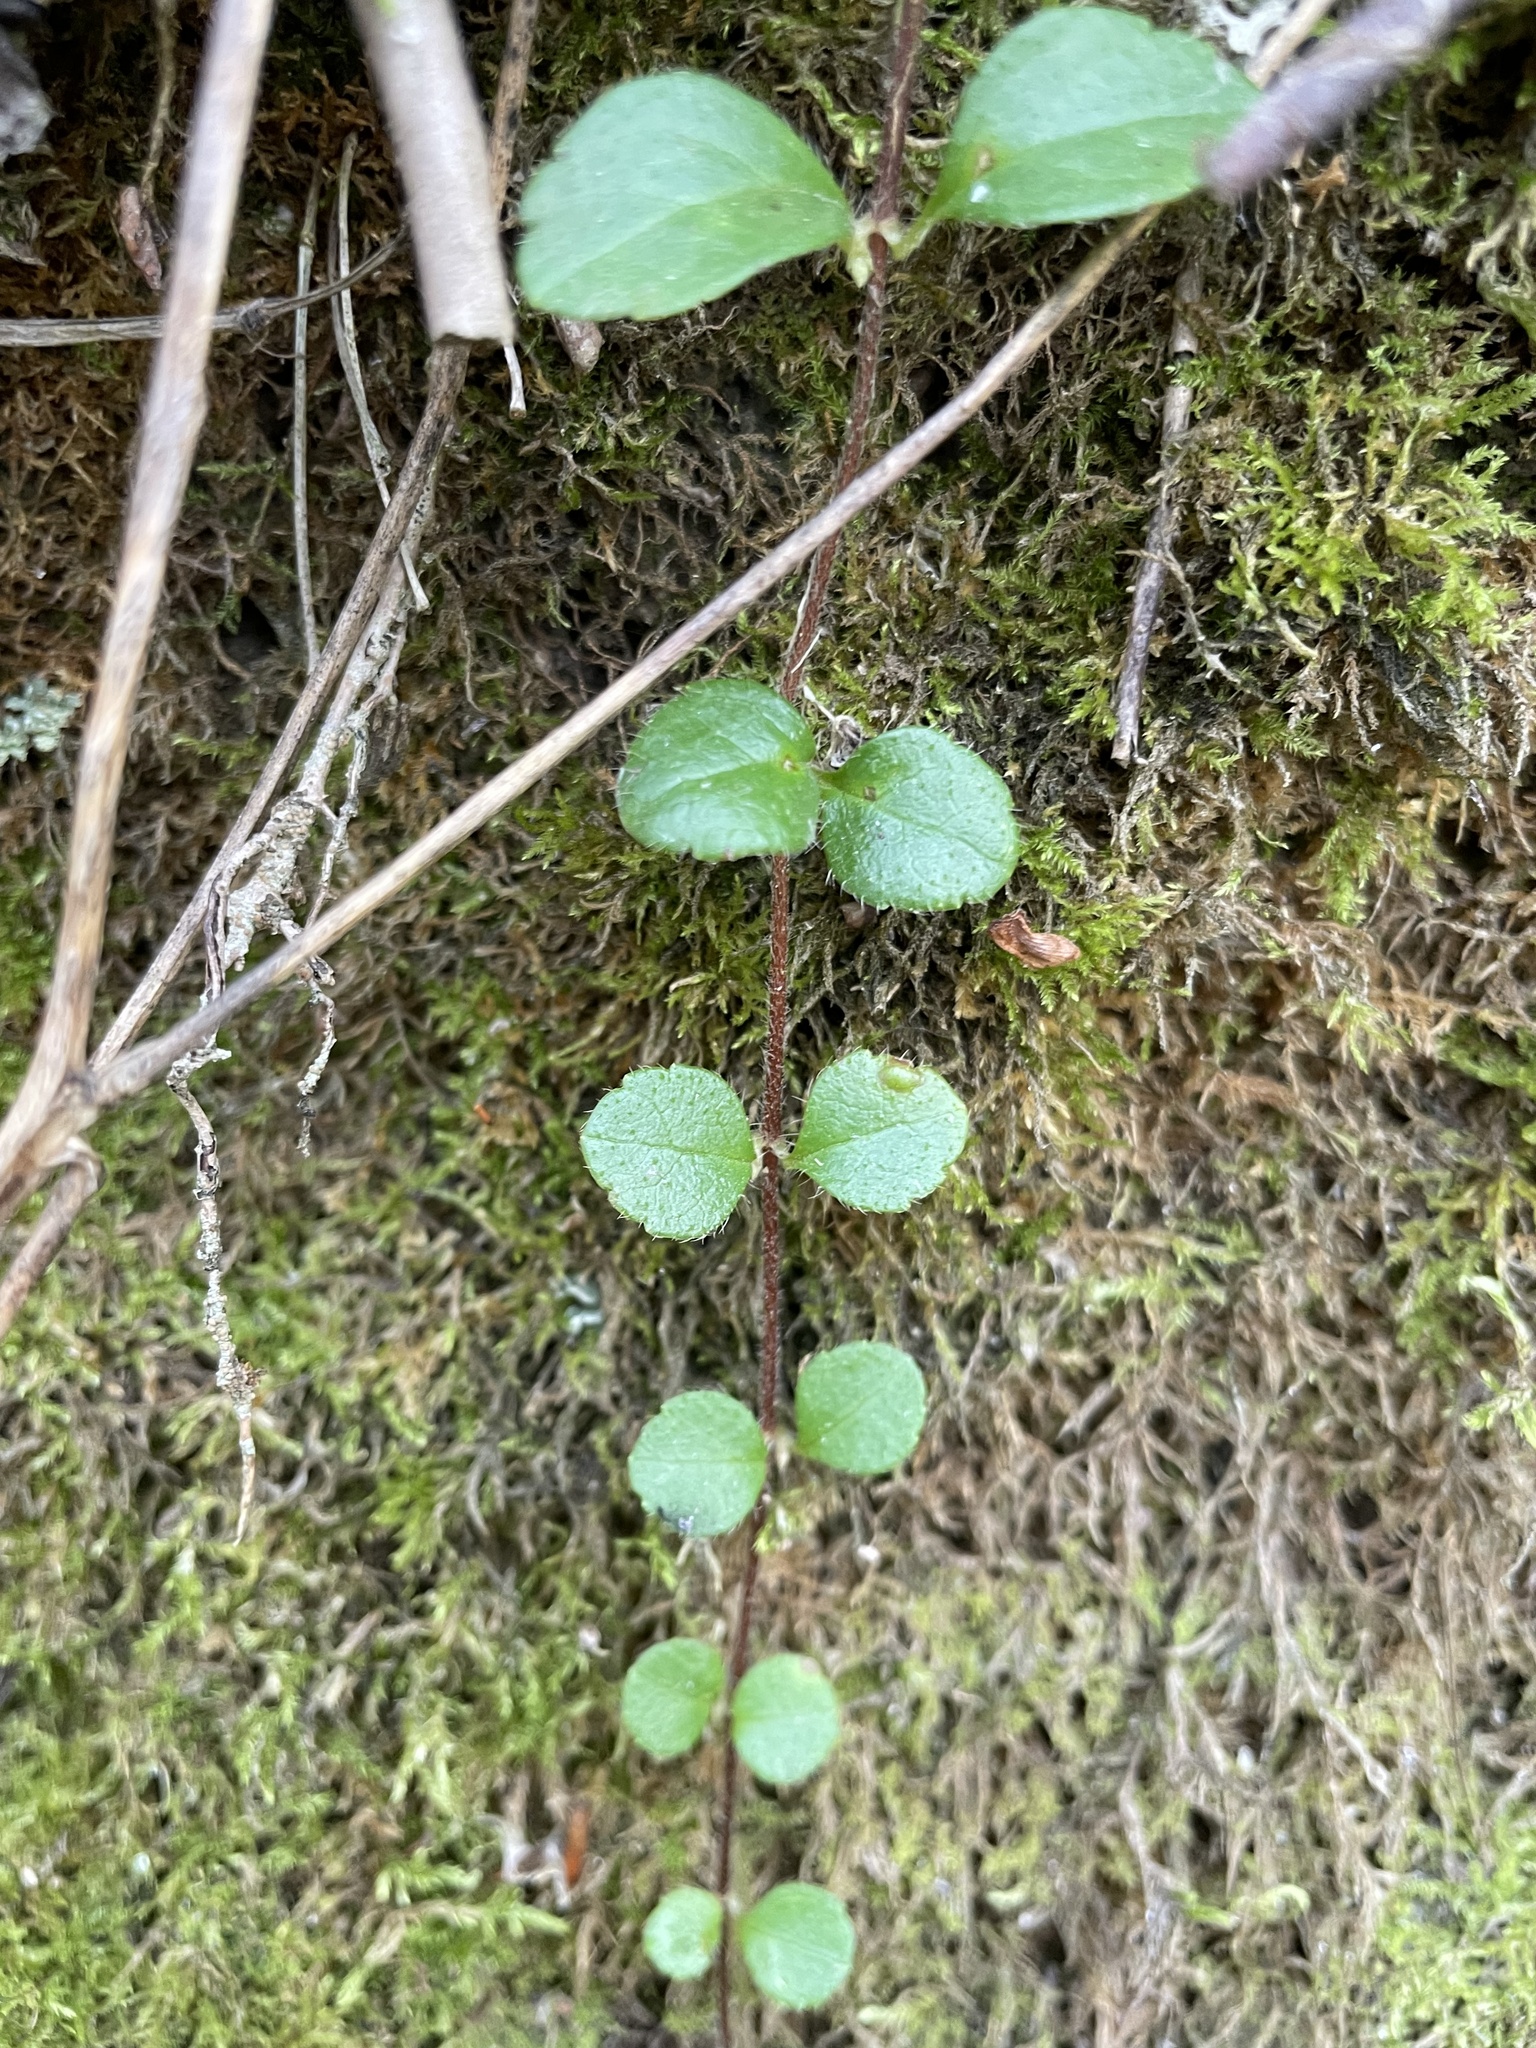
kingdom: Plantae
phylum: Tracheophyta
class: Magnoliopsida
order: Dipsacales
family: Caprifoliaceae
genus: Linnaea
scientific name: Linnaea borealis
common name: Twinflower
